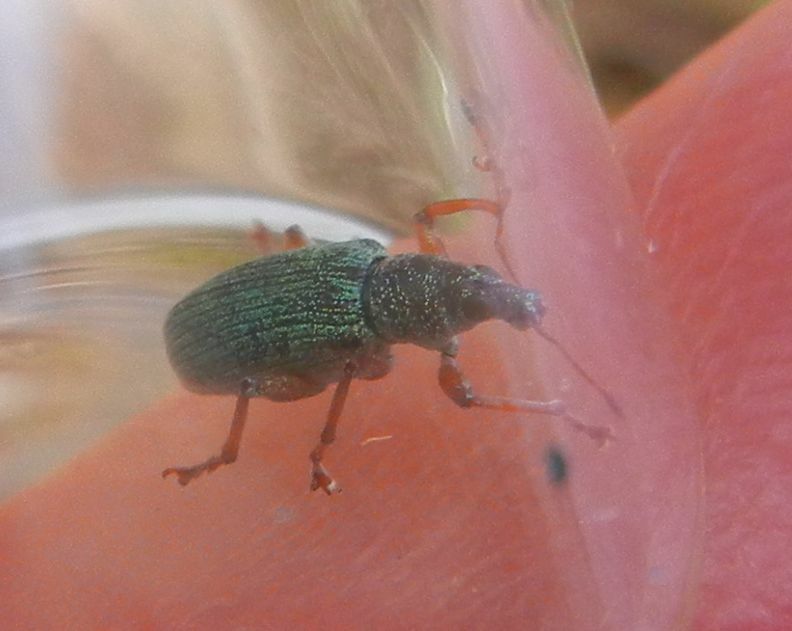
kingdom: Animalia
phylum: Arthropoda
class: Insecta
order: Coleoptera
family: Curculionidae
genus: Polydrusus
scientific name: Polydrusus formosus
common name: Weevil
